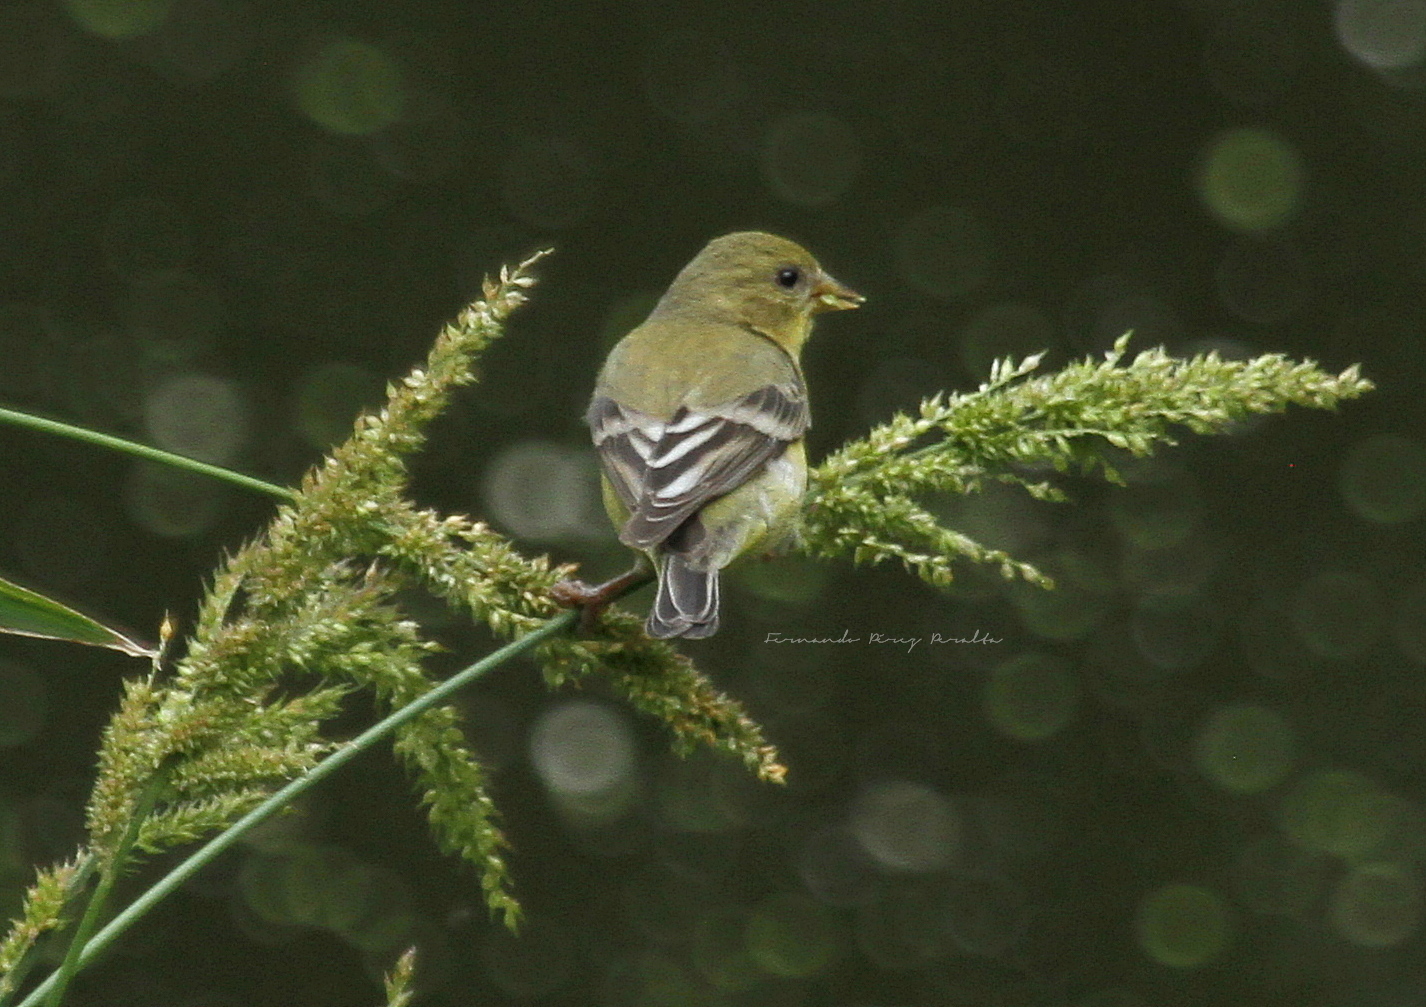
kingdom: Animalia
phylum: Chordata
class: Aves
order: Passeriformes
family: Fringillidae
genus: Spinus
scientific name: Spinus psaltria
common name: Lesser goldfinch
